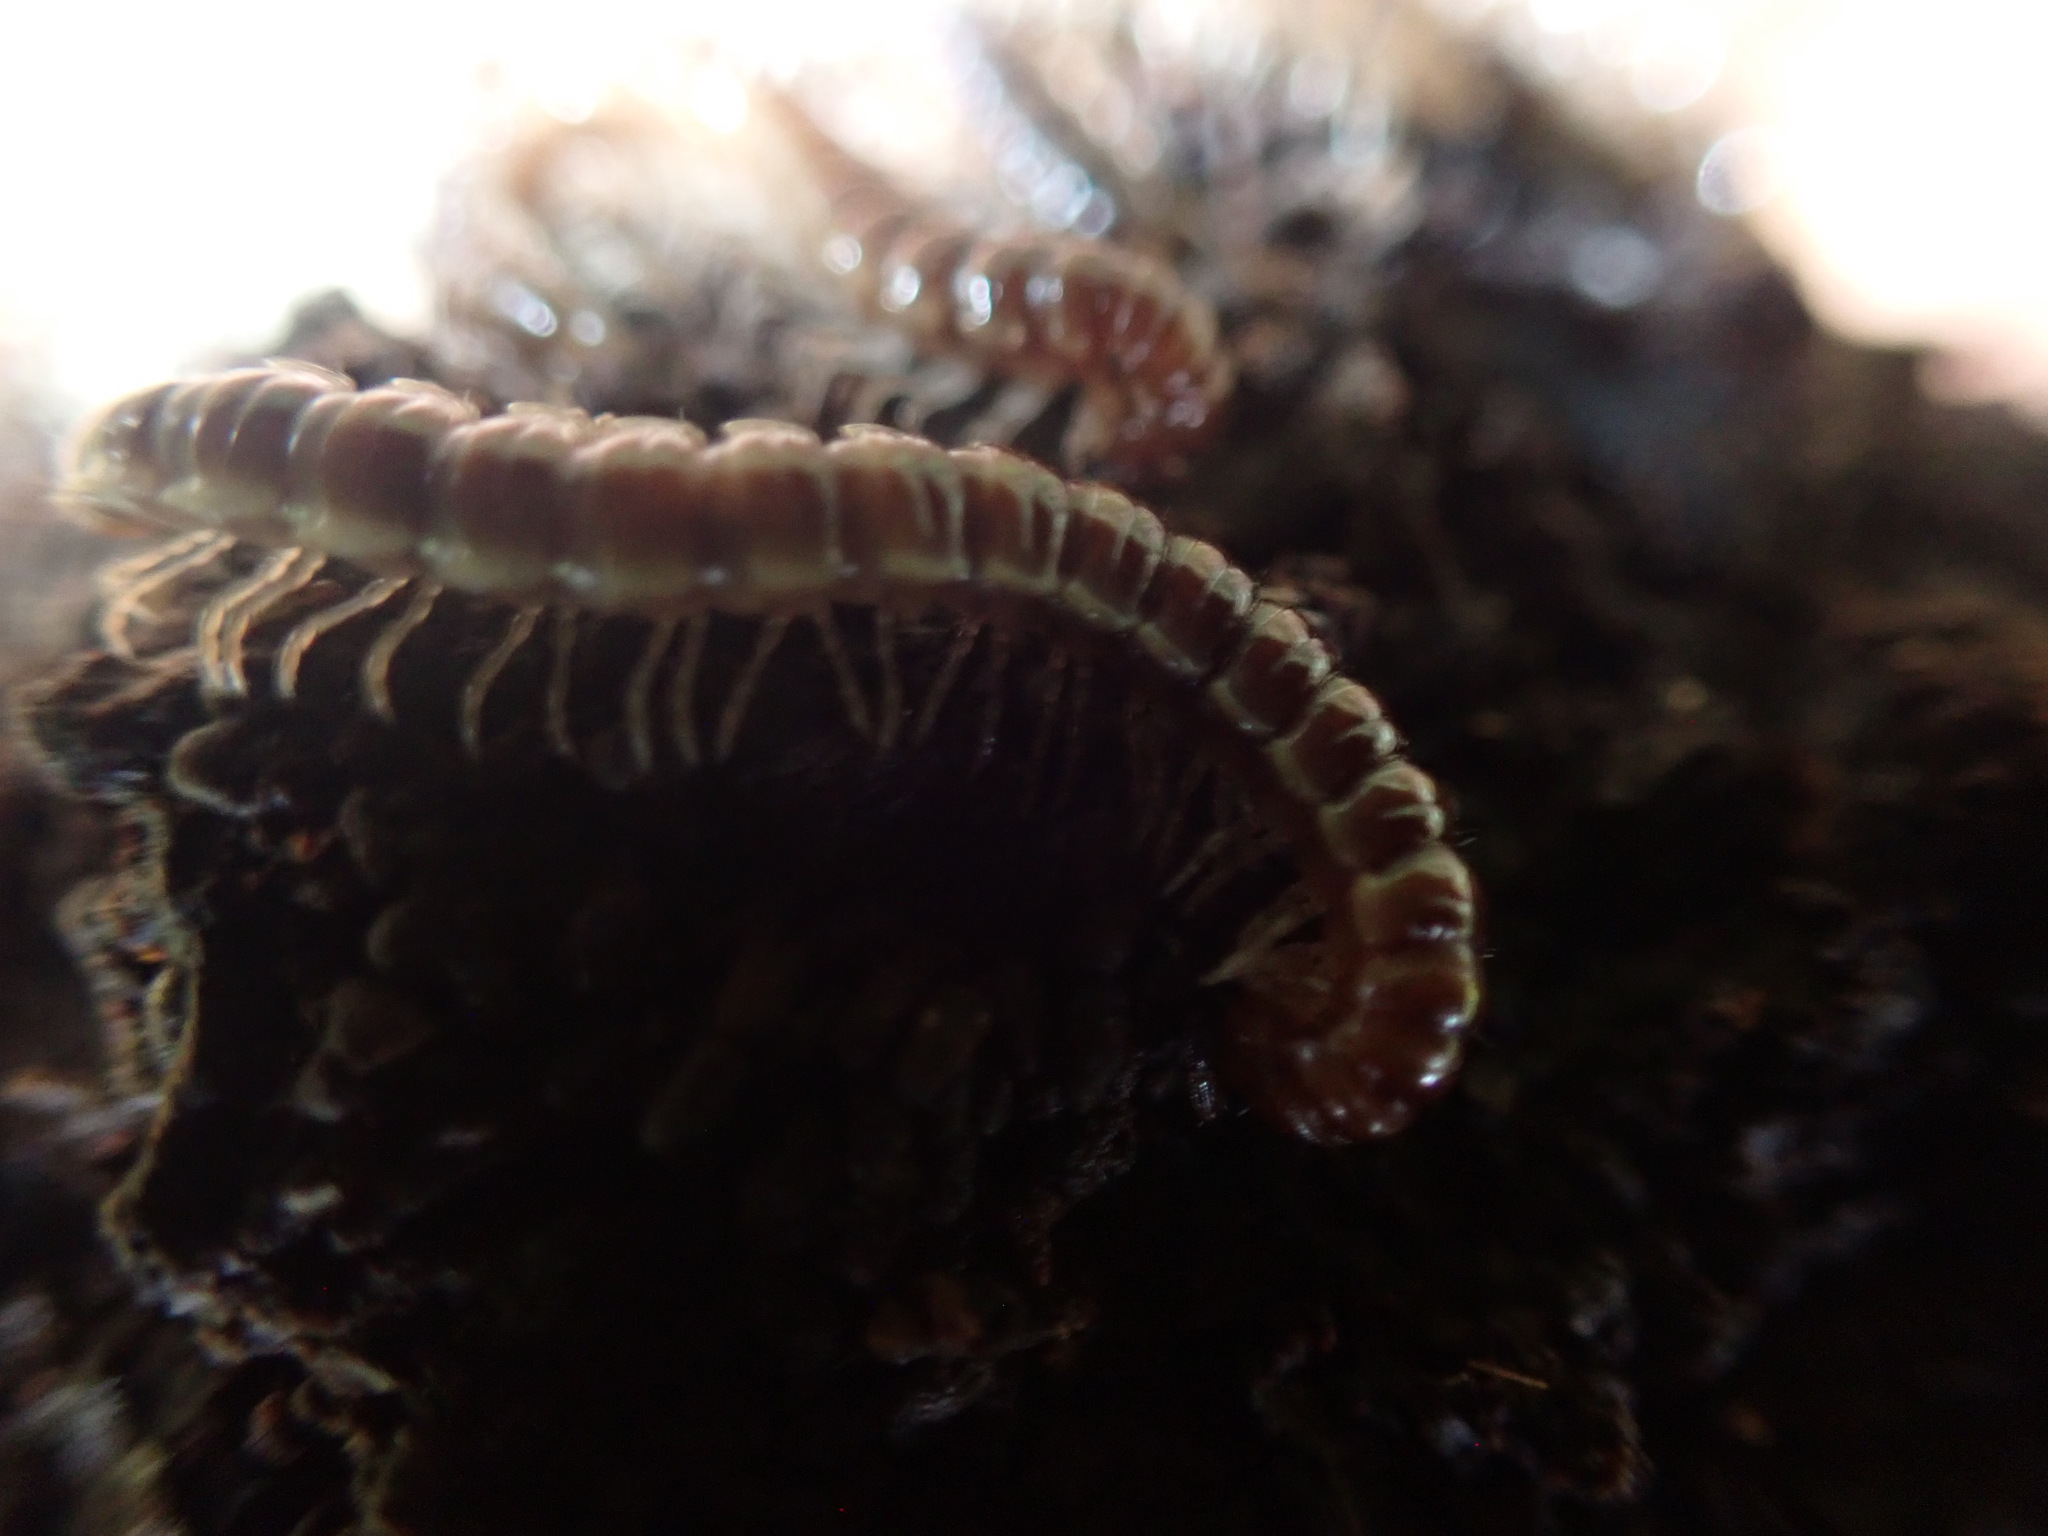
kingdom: Animalia
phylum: Arthropoda
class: Diplopoda
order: Polydesmida
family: Paradoxosomatidae
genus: Oxidus
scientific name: Oxidus gracilis
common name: Greenhouse millipede
